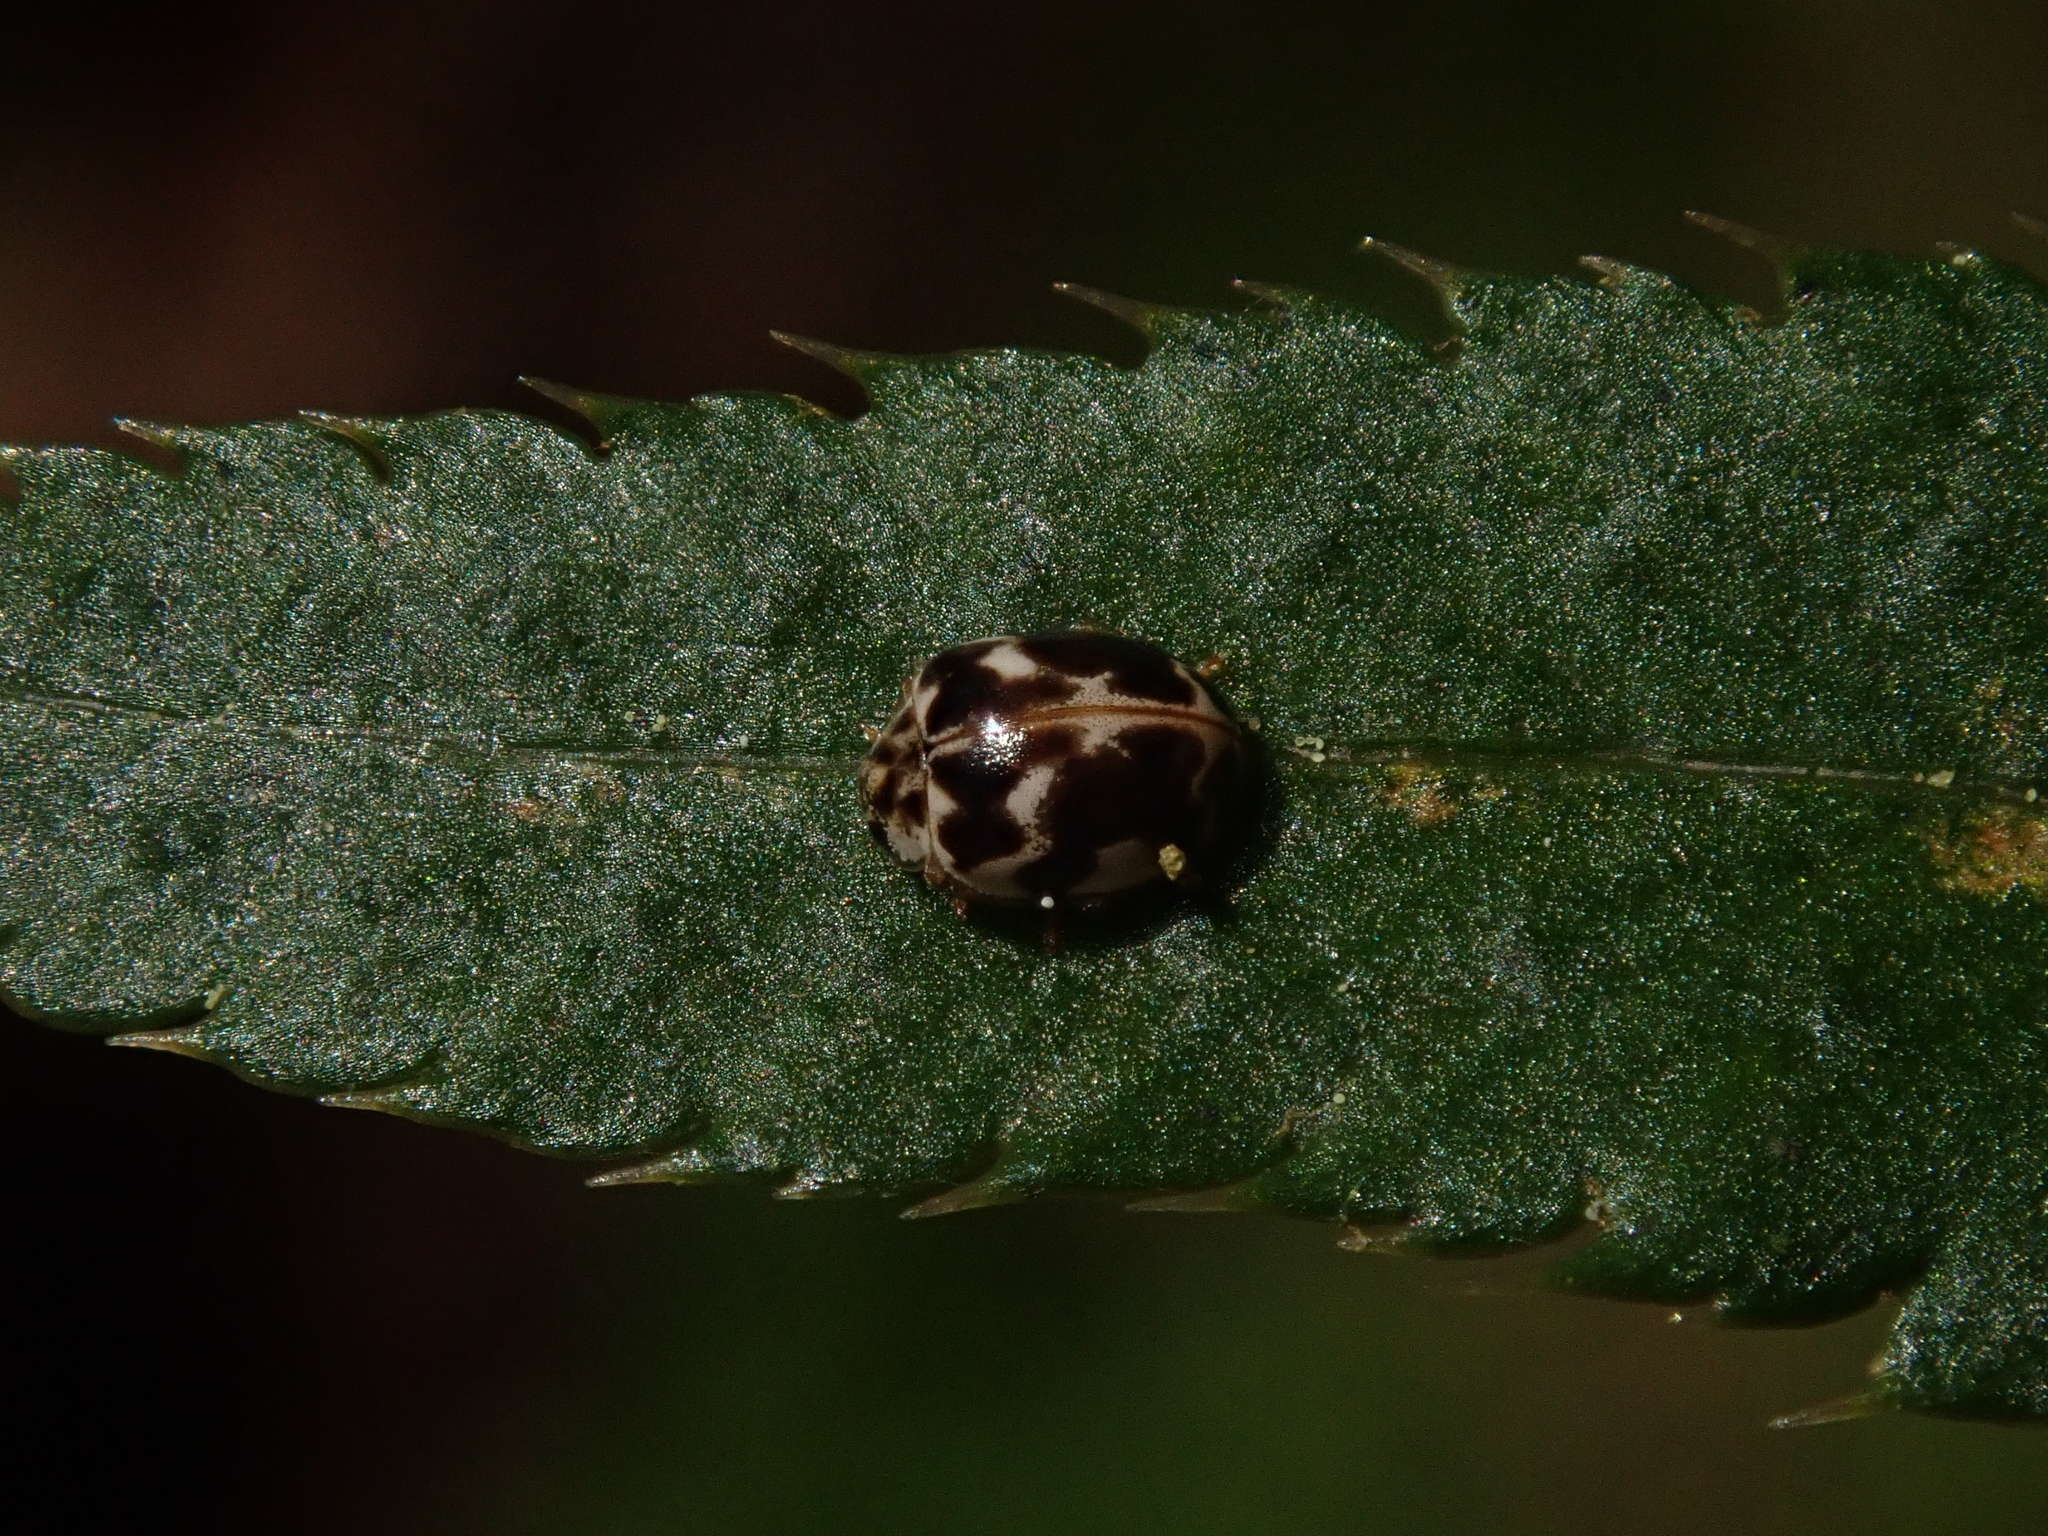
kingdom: Animalia
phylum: Arthropoda
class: Insecta
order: Coleoptera
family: Coccinellidae
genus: Psyllobora
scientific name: Psyllobora vigintimaculata
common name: Ladybird beetle
